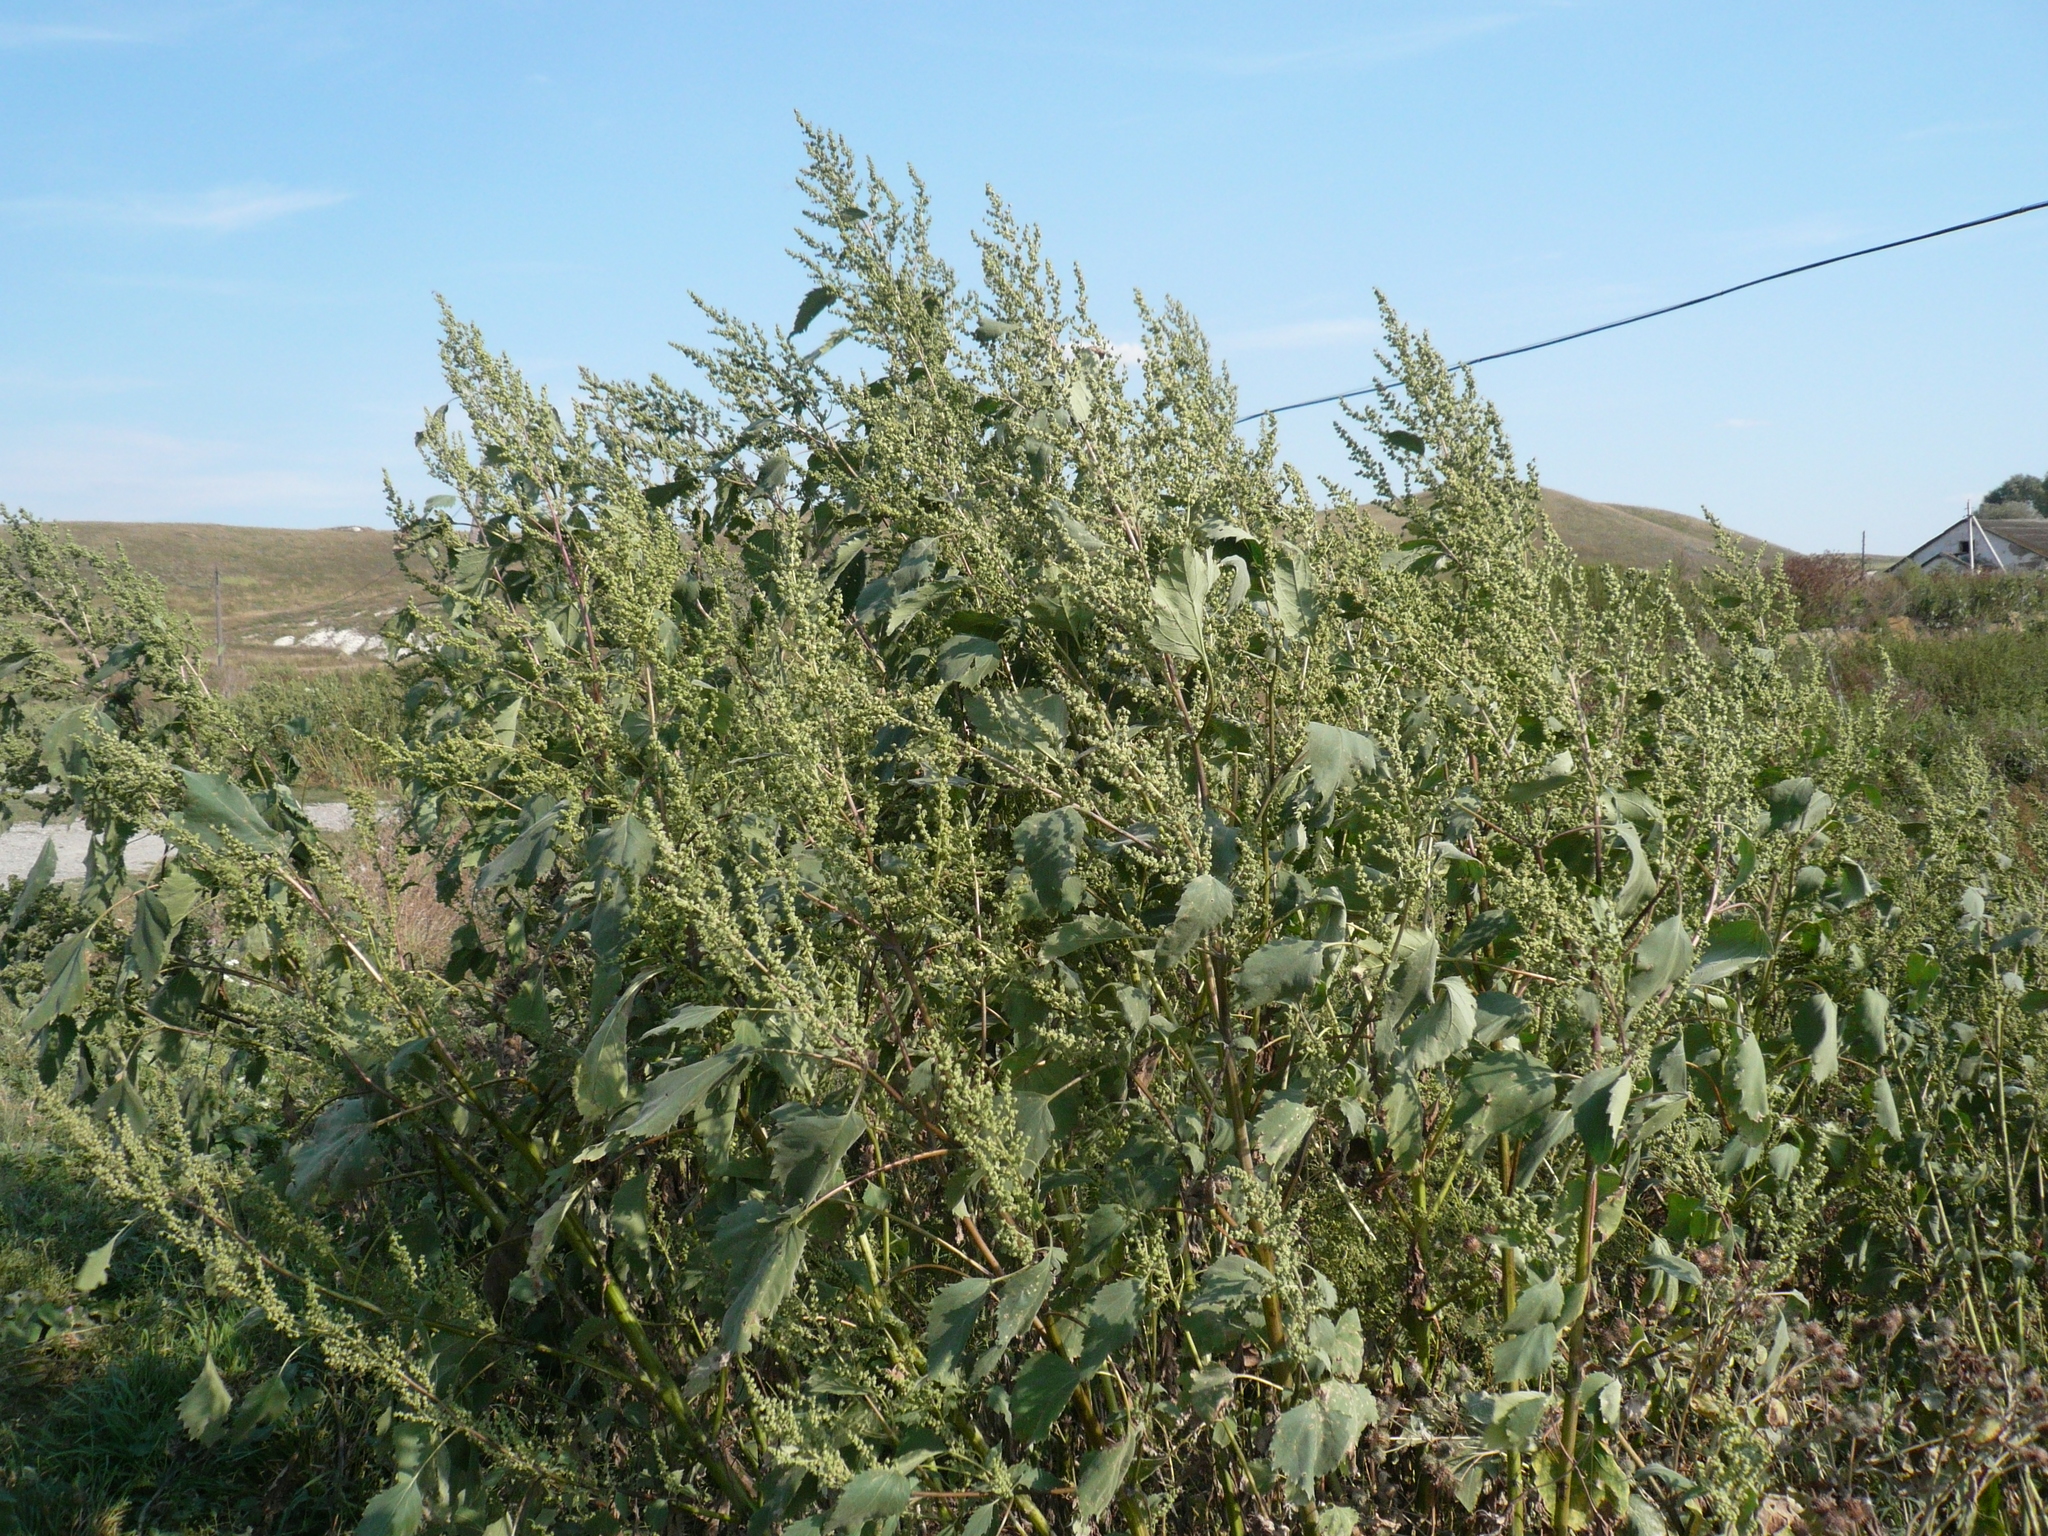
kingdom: Plantae
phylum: Tracheophyta
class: Magnoliopsida
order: Asterales
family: Asteraceae
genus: Cyclachaena
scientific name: Cyclachaena xanthiifolia
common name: Giant sumpweed
